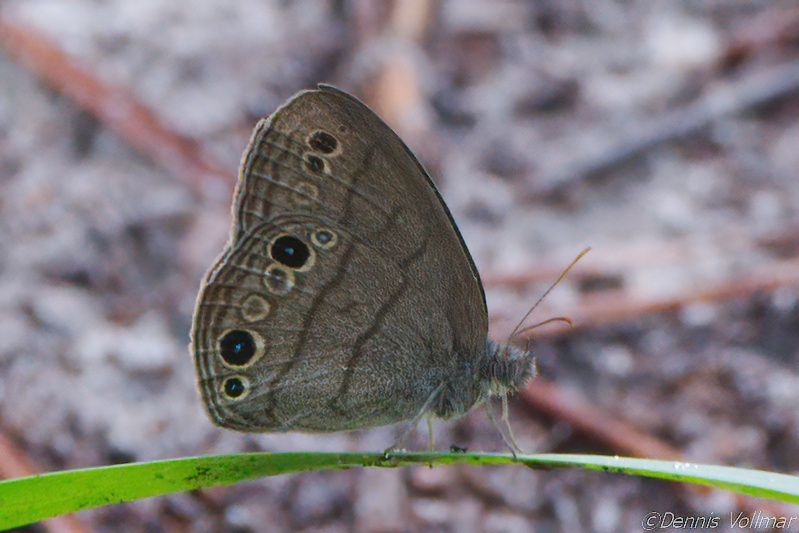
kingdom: Animalia
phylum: Arthropoda
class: Insecta
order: Lepidoptera
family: Nymphalidae
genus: Hermeuptychia
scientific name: Hermeuptychia hermes
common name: Hermes satyr
